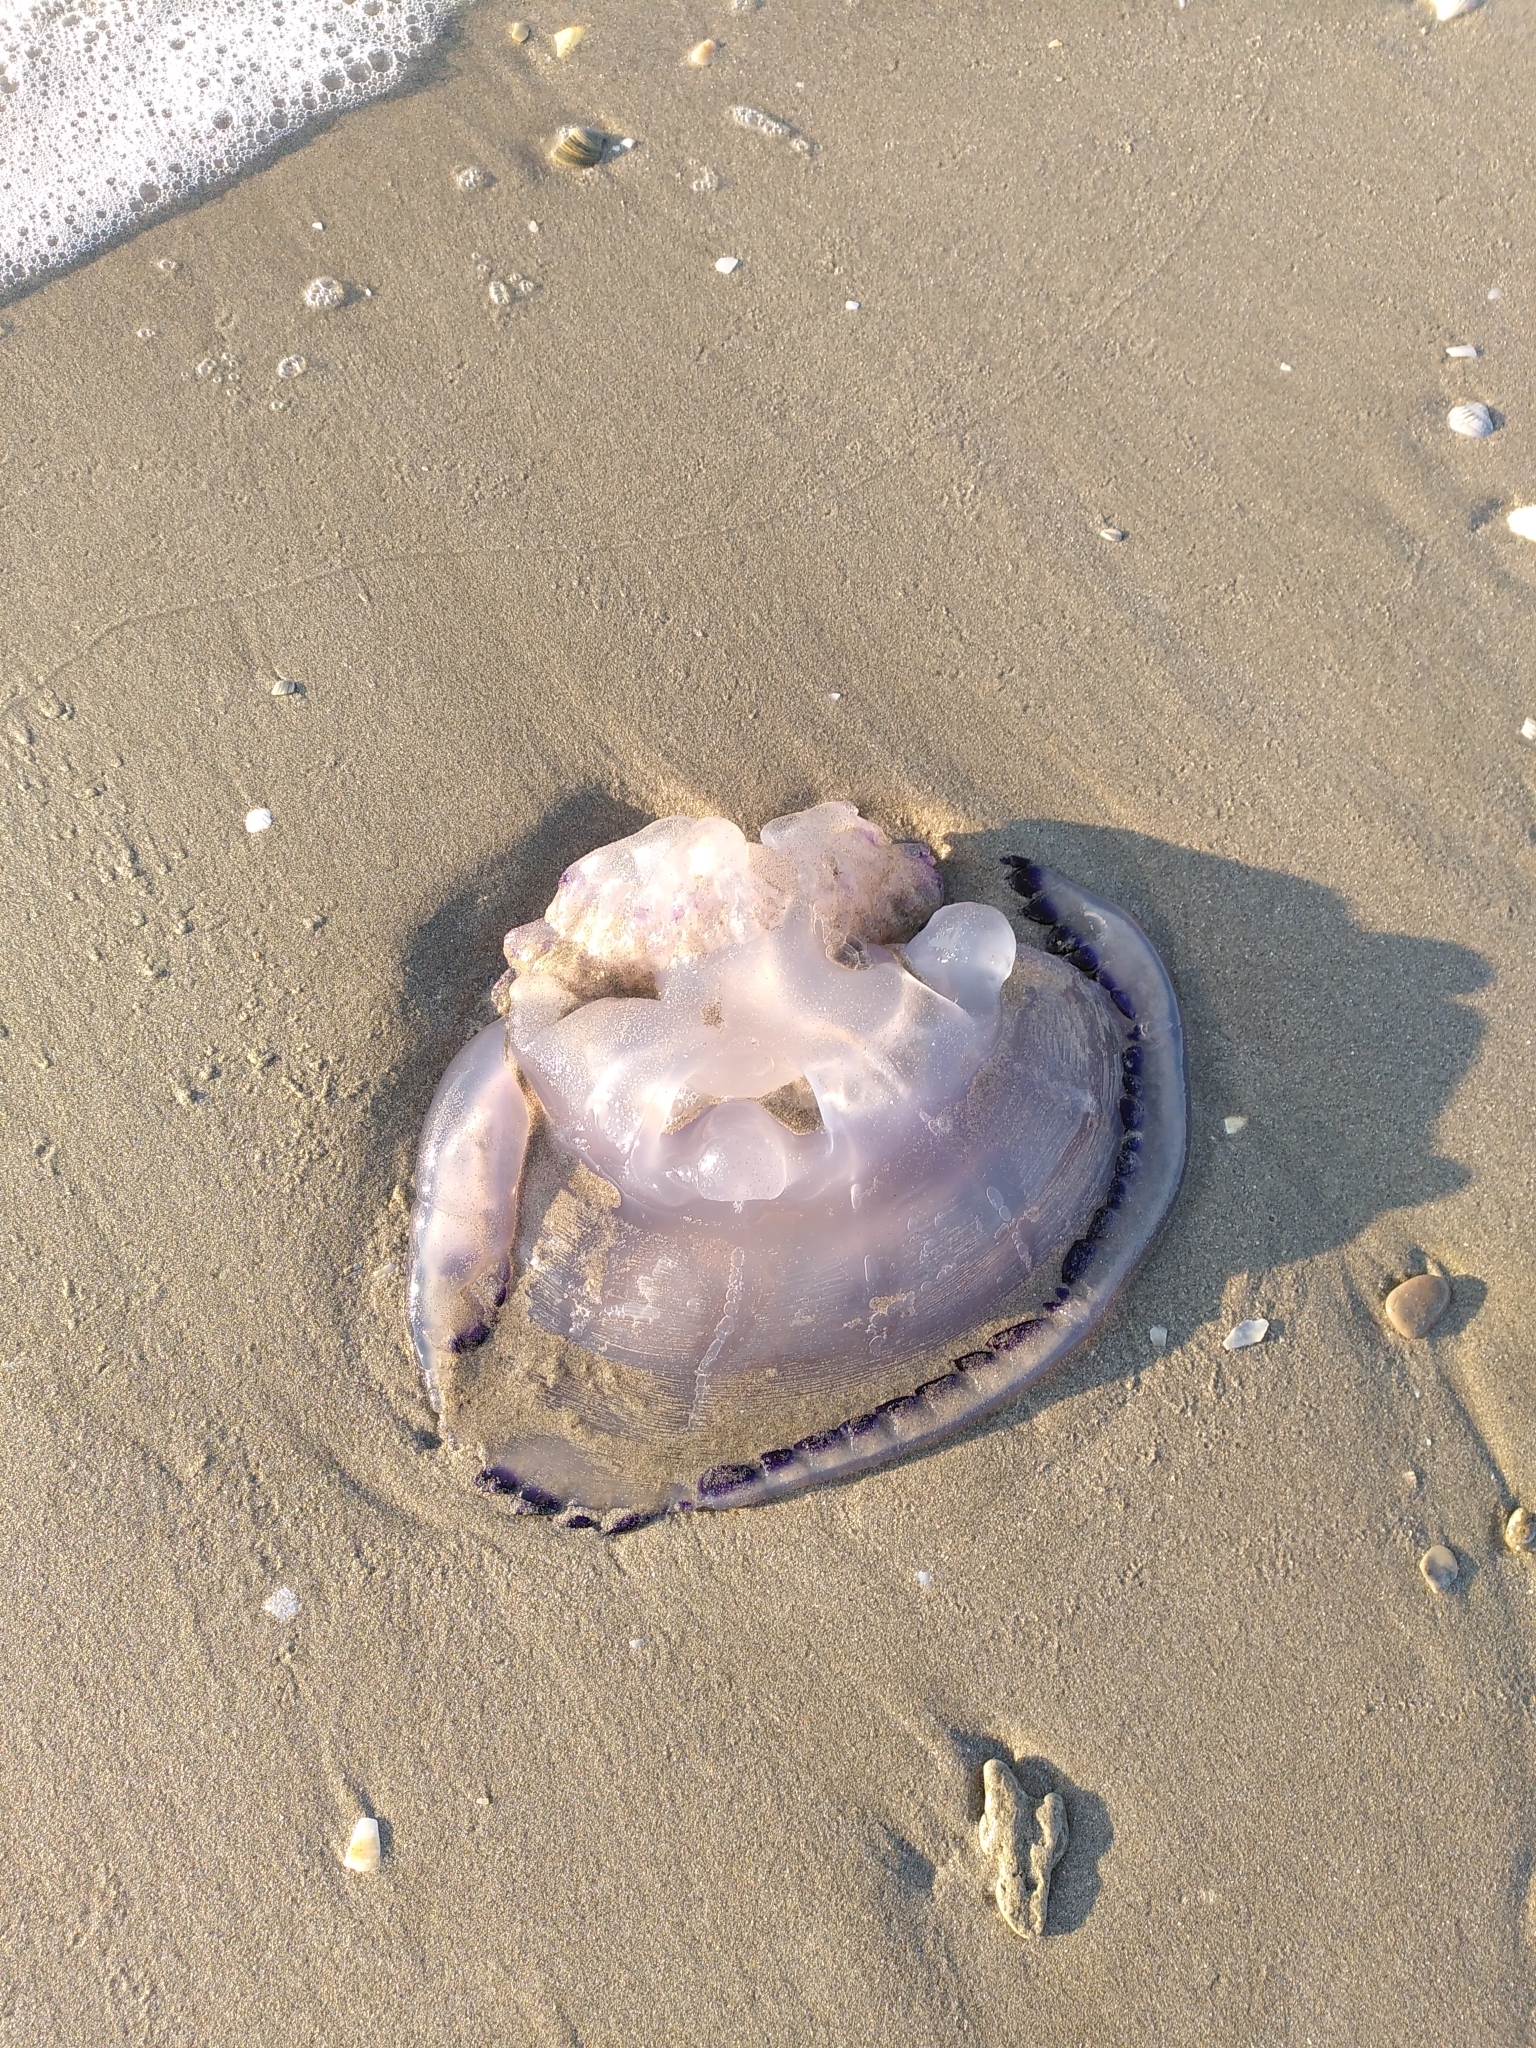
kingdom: Animalia
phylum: Cnidaria
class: Scyphozoa
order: Rhizostomeae
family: Rhizostomatidae
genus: Rhizostoma
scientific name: Rhizostoma pulmo
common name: Barrel jellyfish
